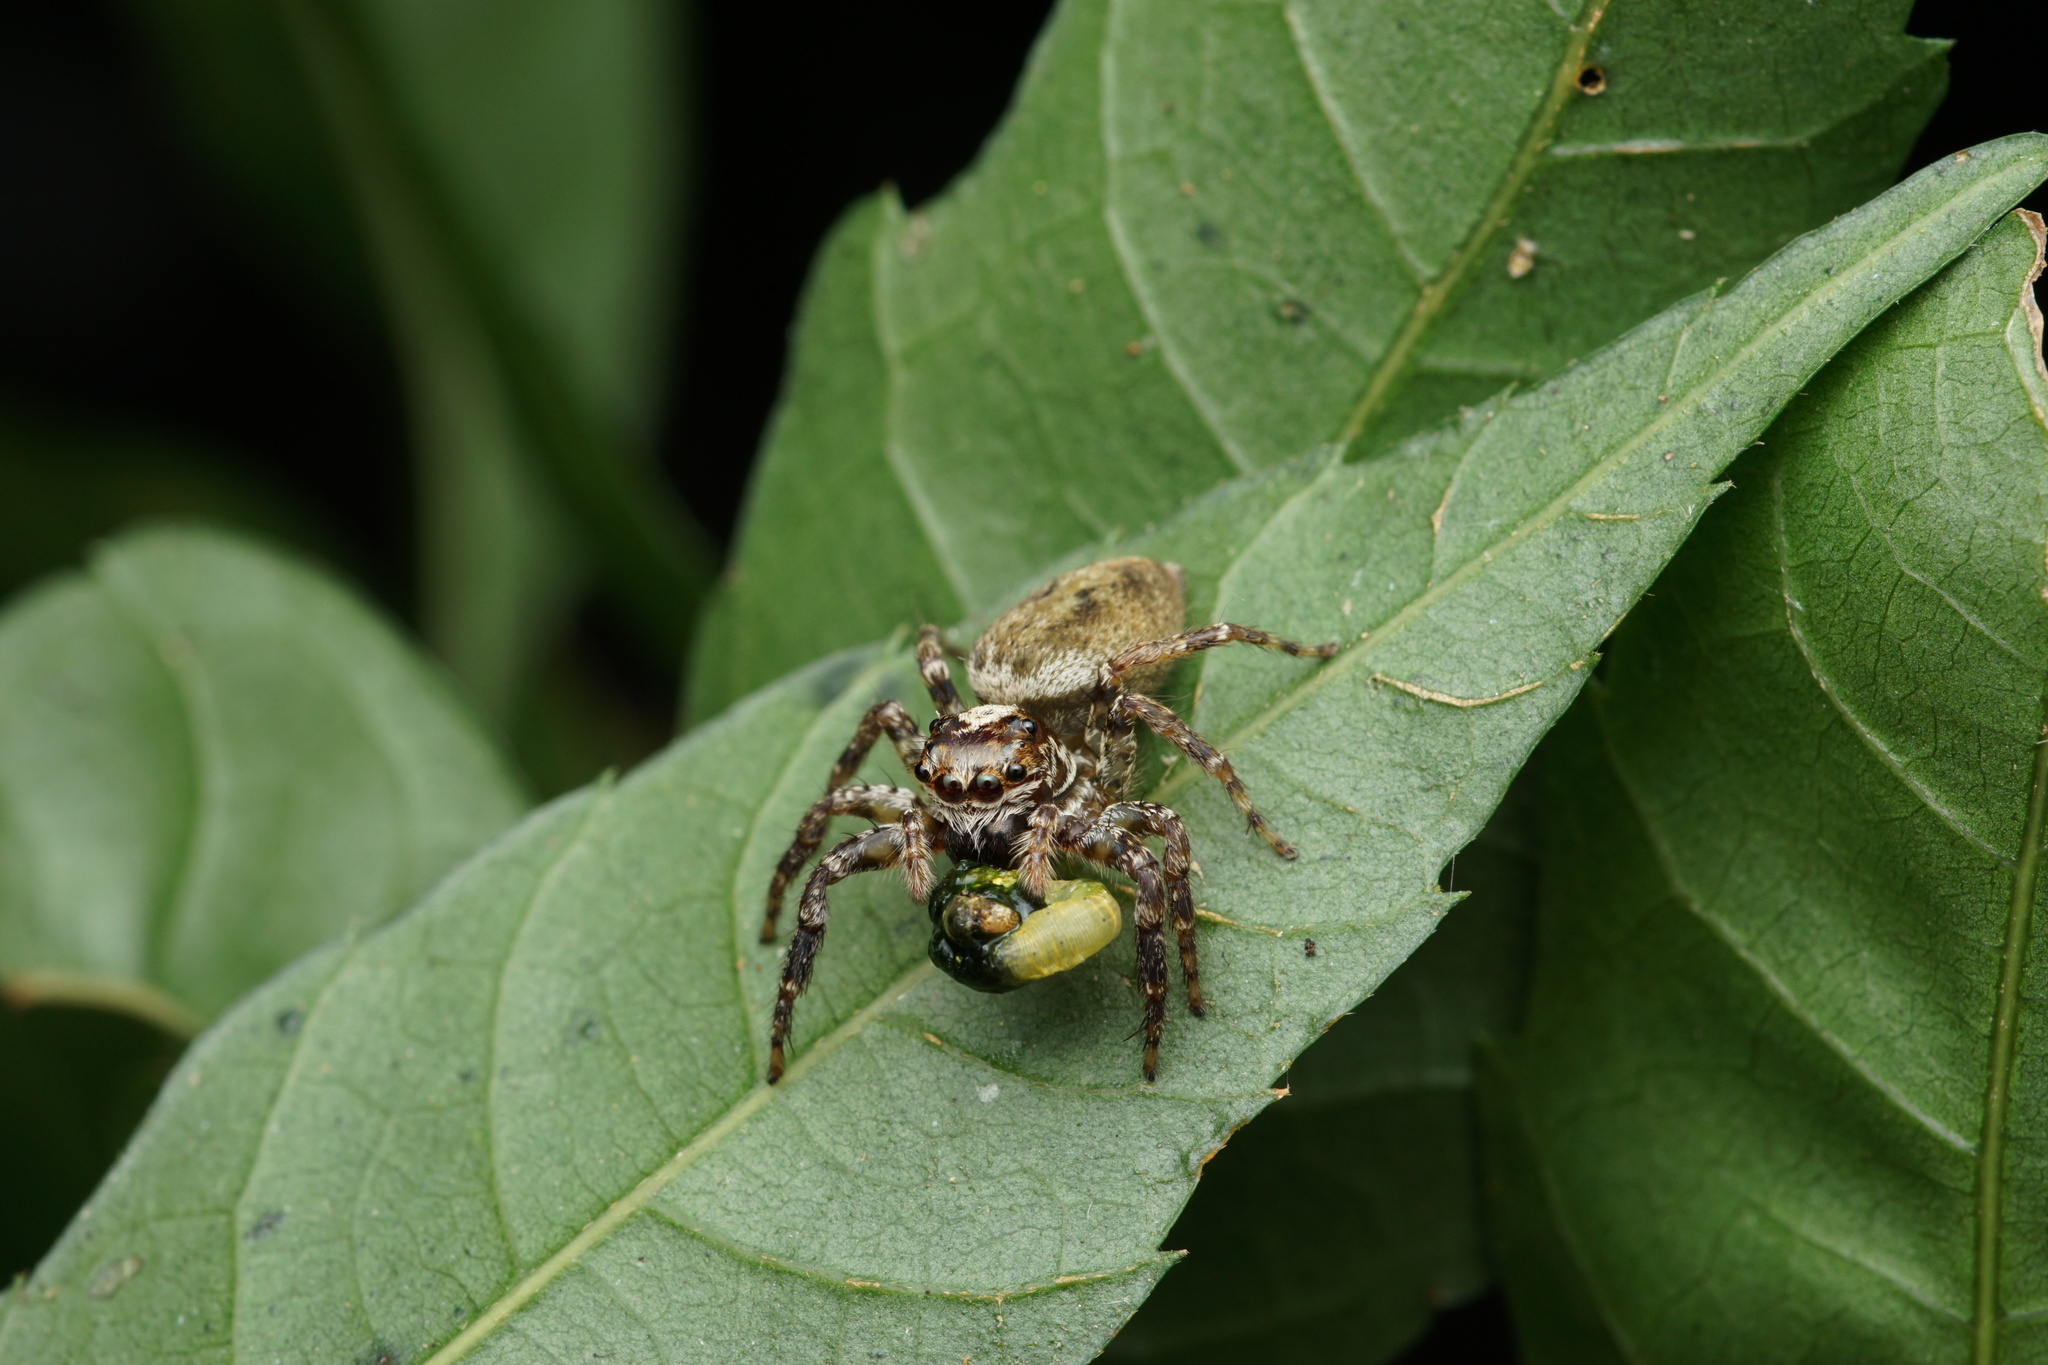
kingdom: Animalia
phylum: Arthropoda
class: Arachnida
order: Araneae
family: Salticidae
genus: Asaphobelis
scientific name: Asaphobelis physonychus
